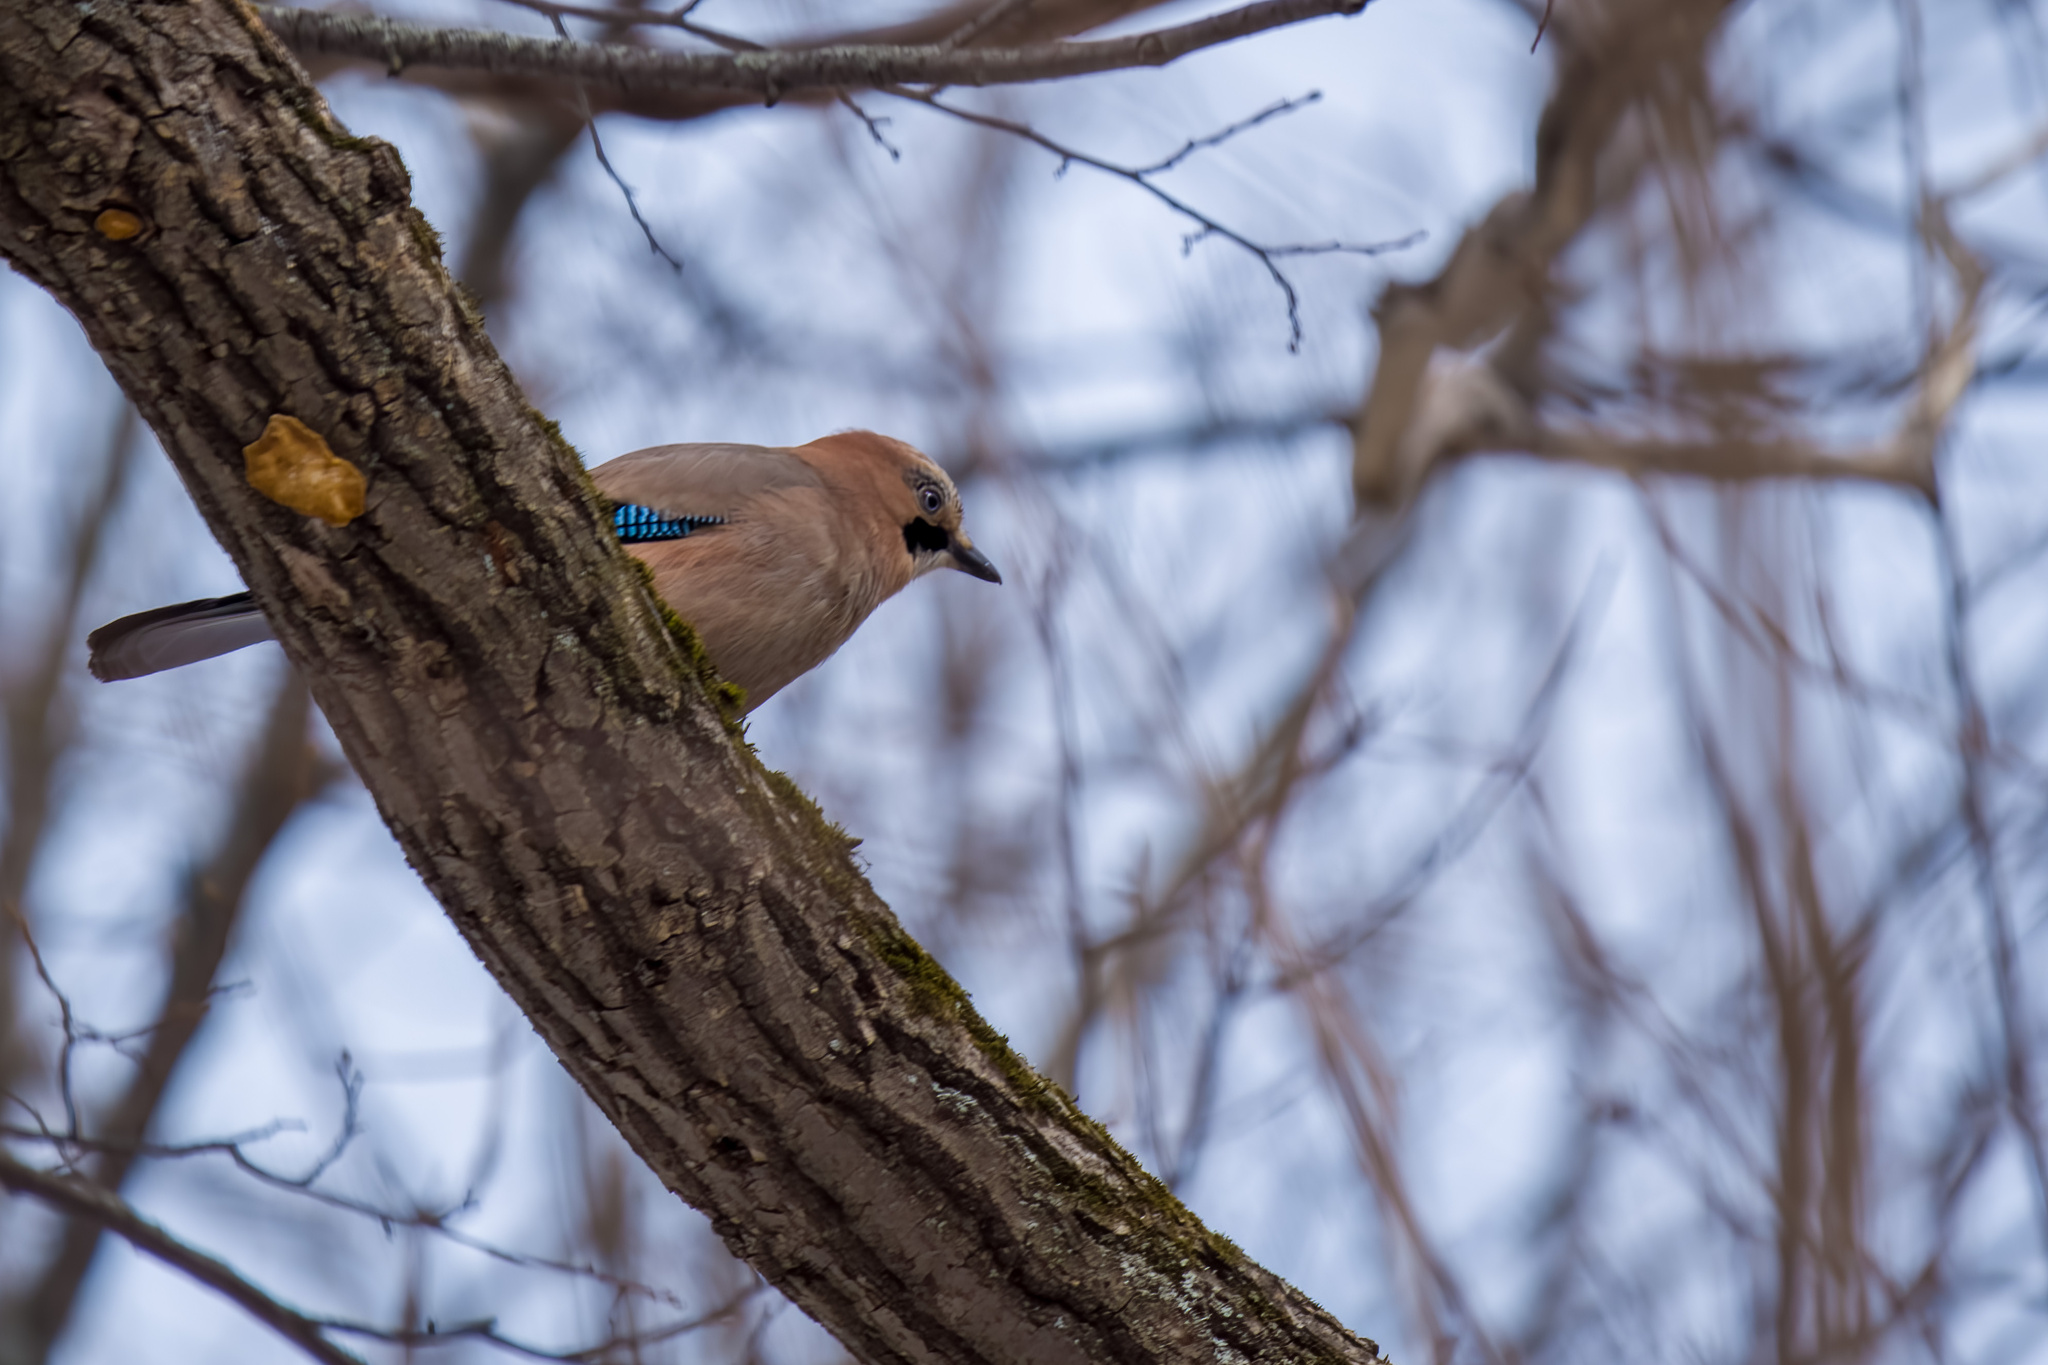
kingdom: Animalia
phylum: Chordata
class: Aves
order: Passeriformes
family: Corvidae
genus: Garrulus
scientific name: Garrulus glandarius
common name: Eurasian jay
